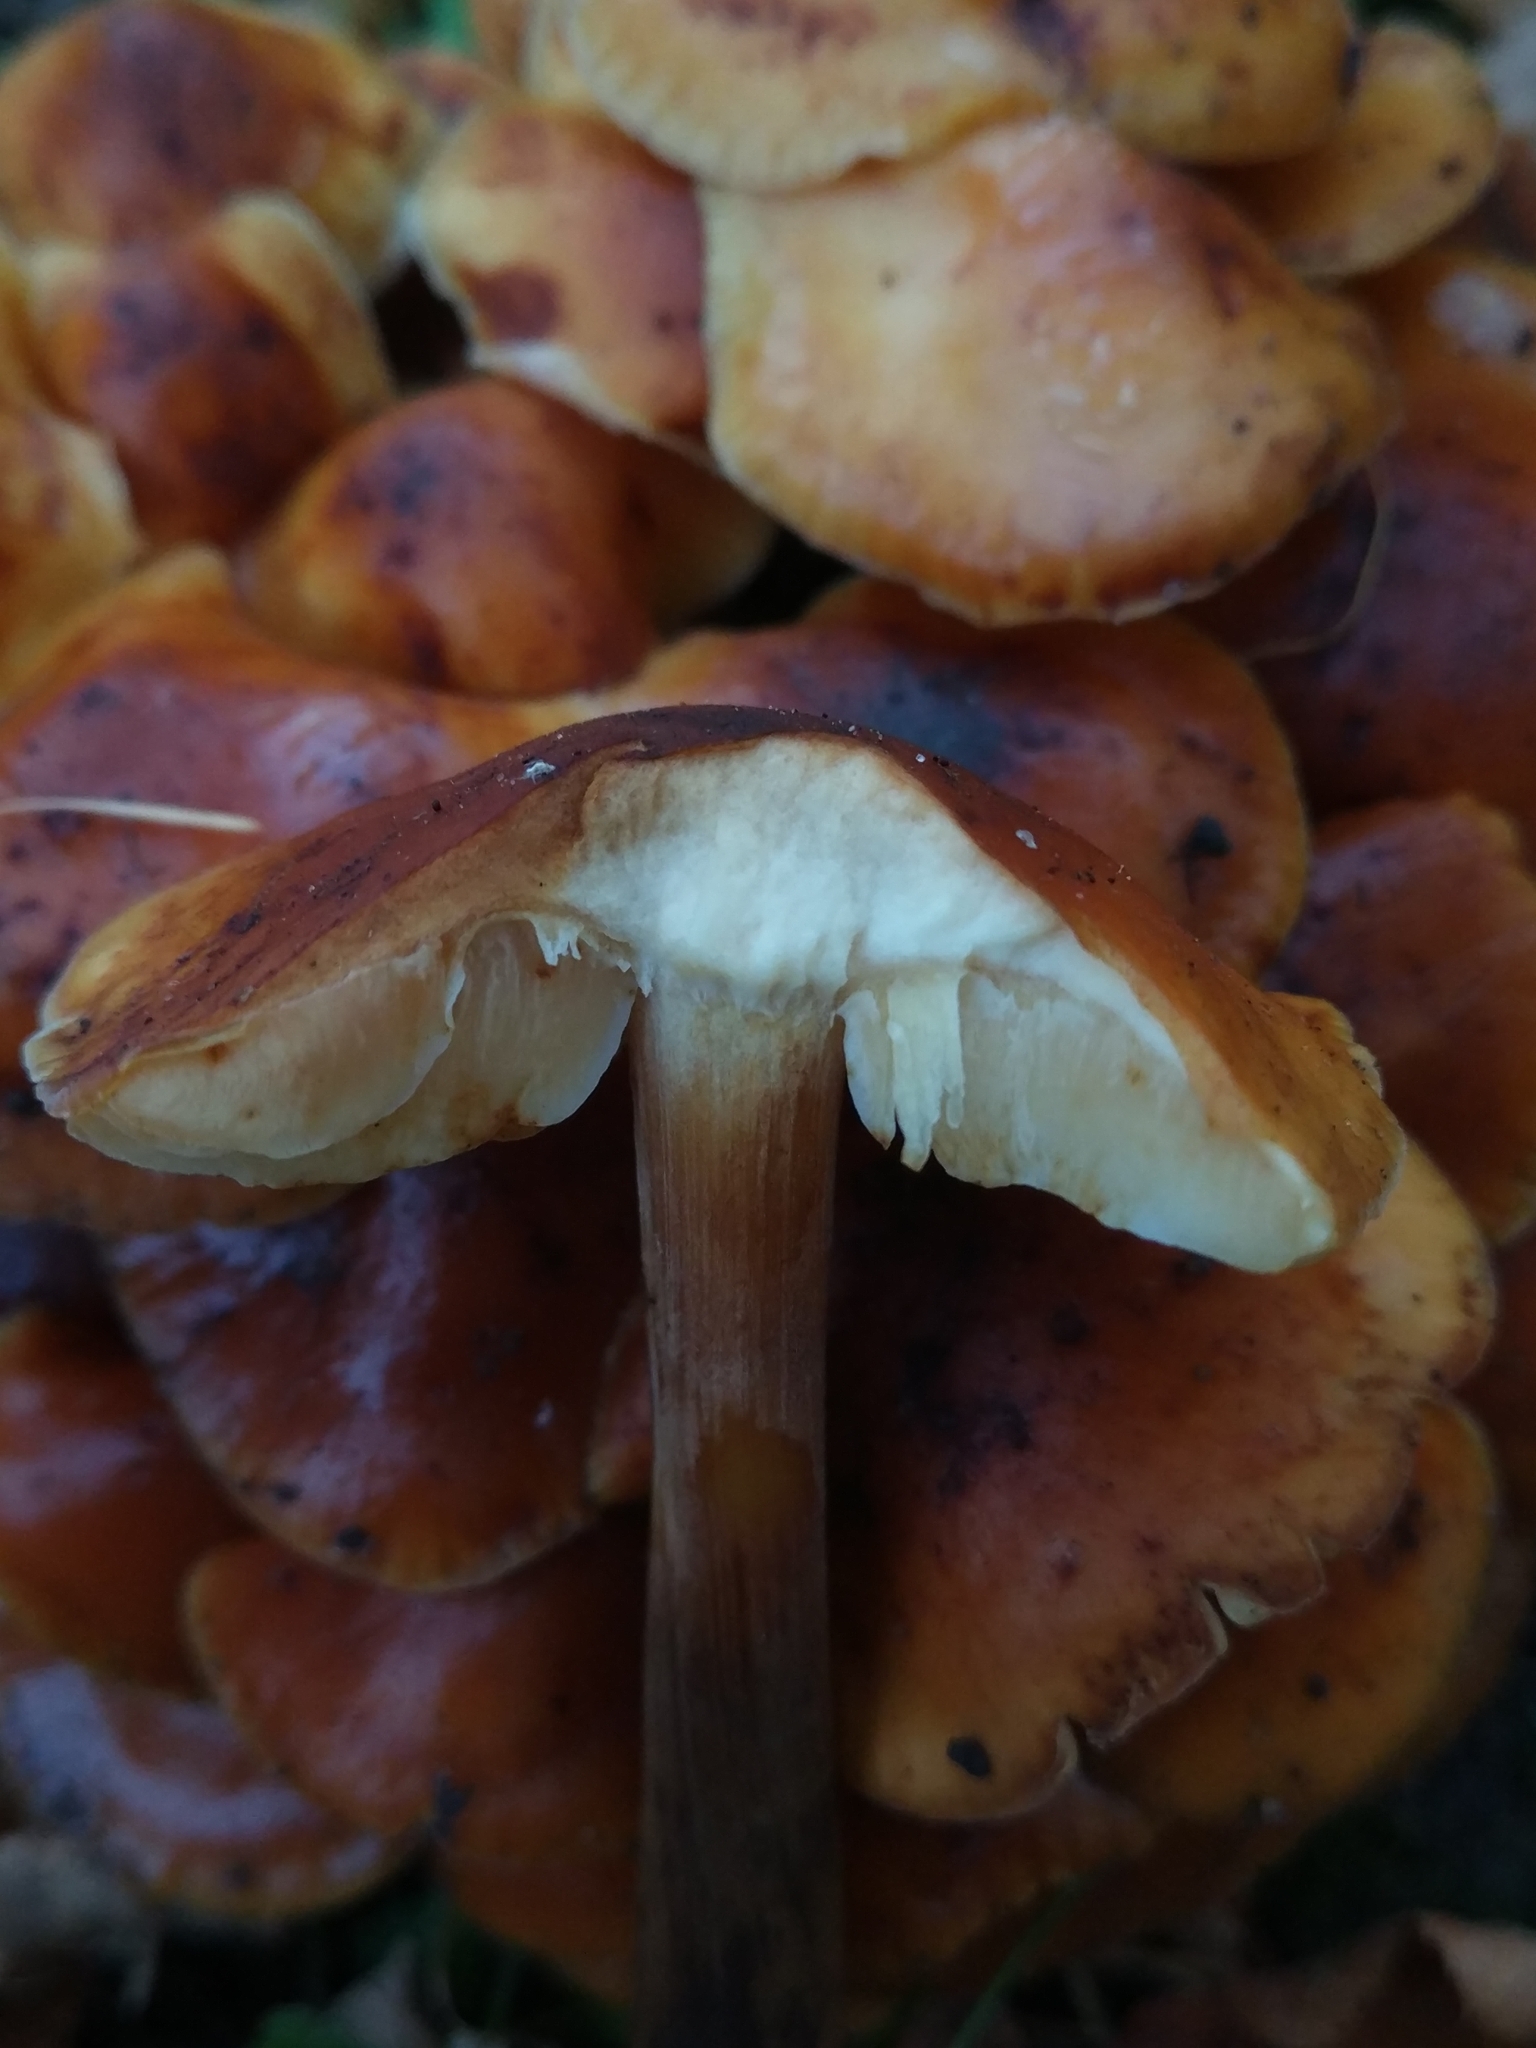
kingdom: Fungi
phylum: Basidiomycota
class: Agaricomycetes
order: Agaricales
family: Physalacriaceae
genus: Flammulina
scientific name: Flammulina
